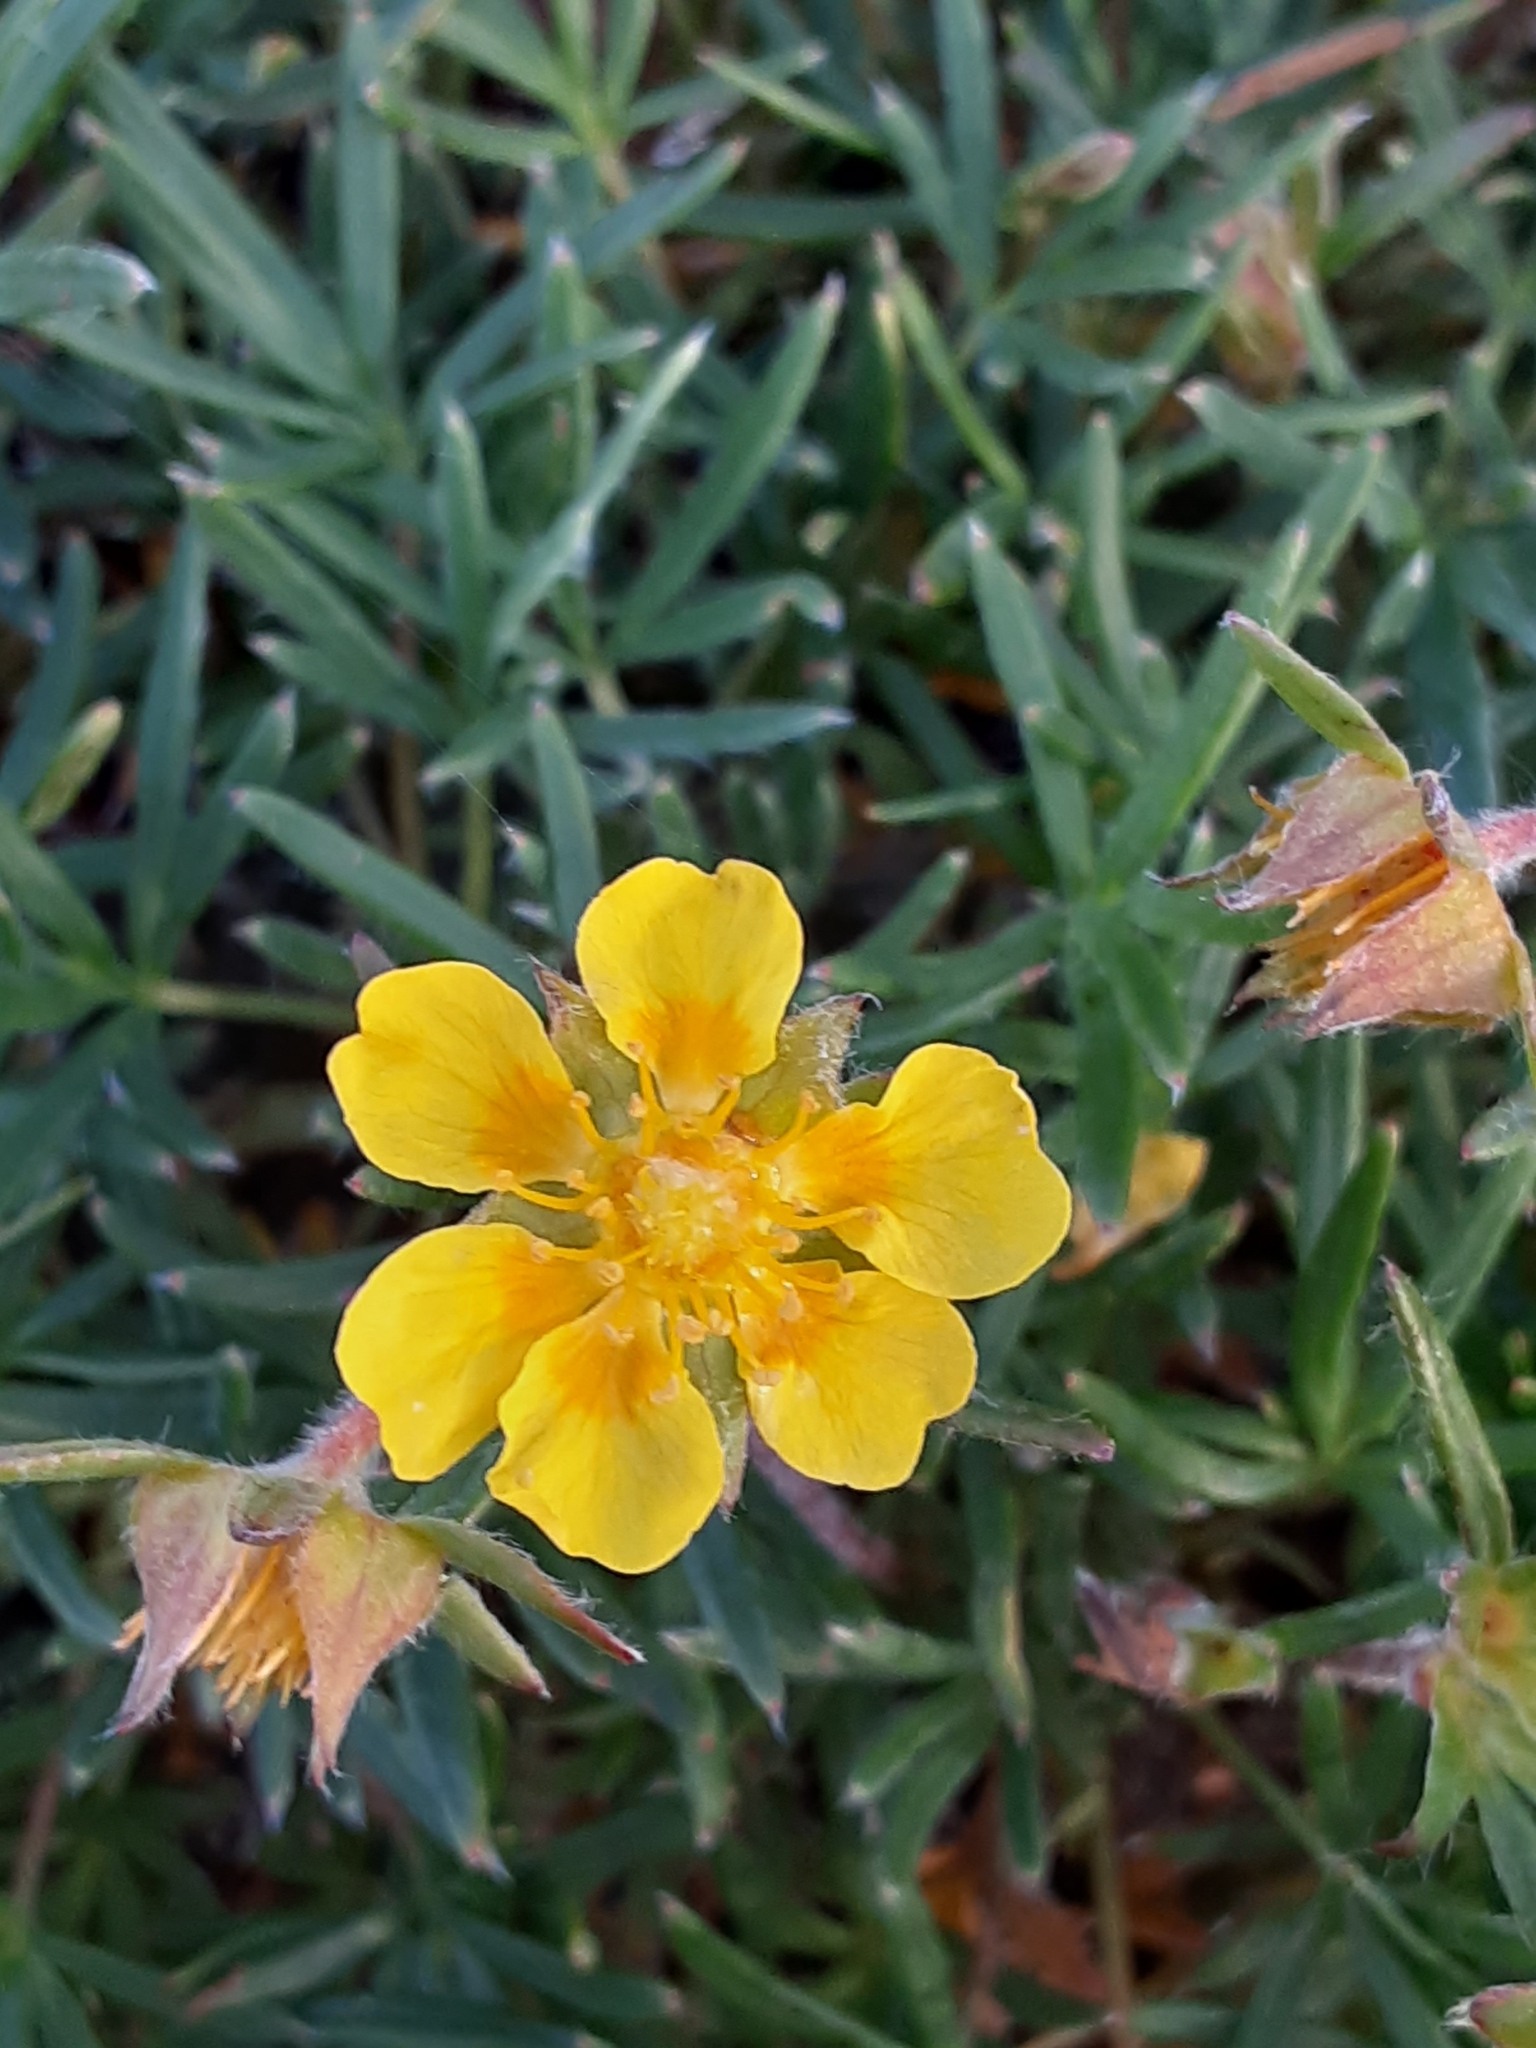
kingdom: Plantae
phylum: Tracheophyta
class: Magnoliopsida
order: Rosales
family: Rosaceae
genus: Potentilla
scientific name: Potentilla biflora
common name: Two-flowered cinquefoil
